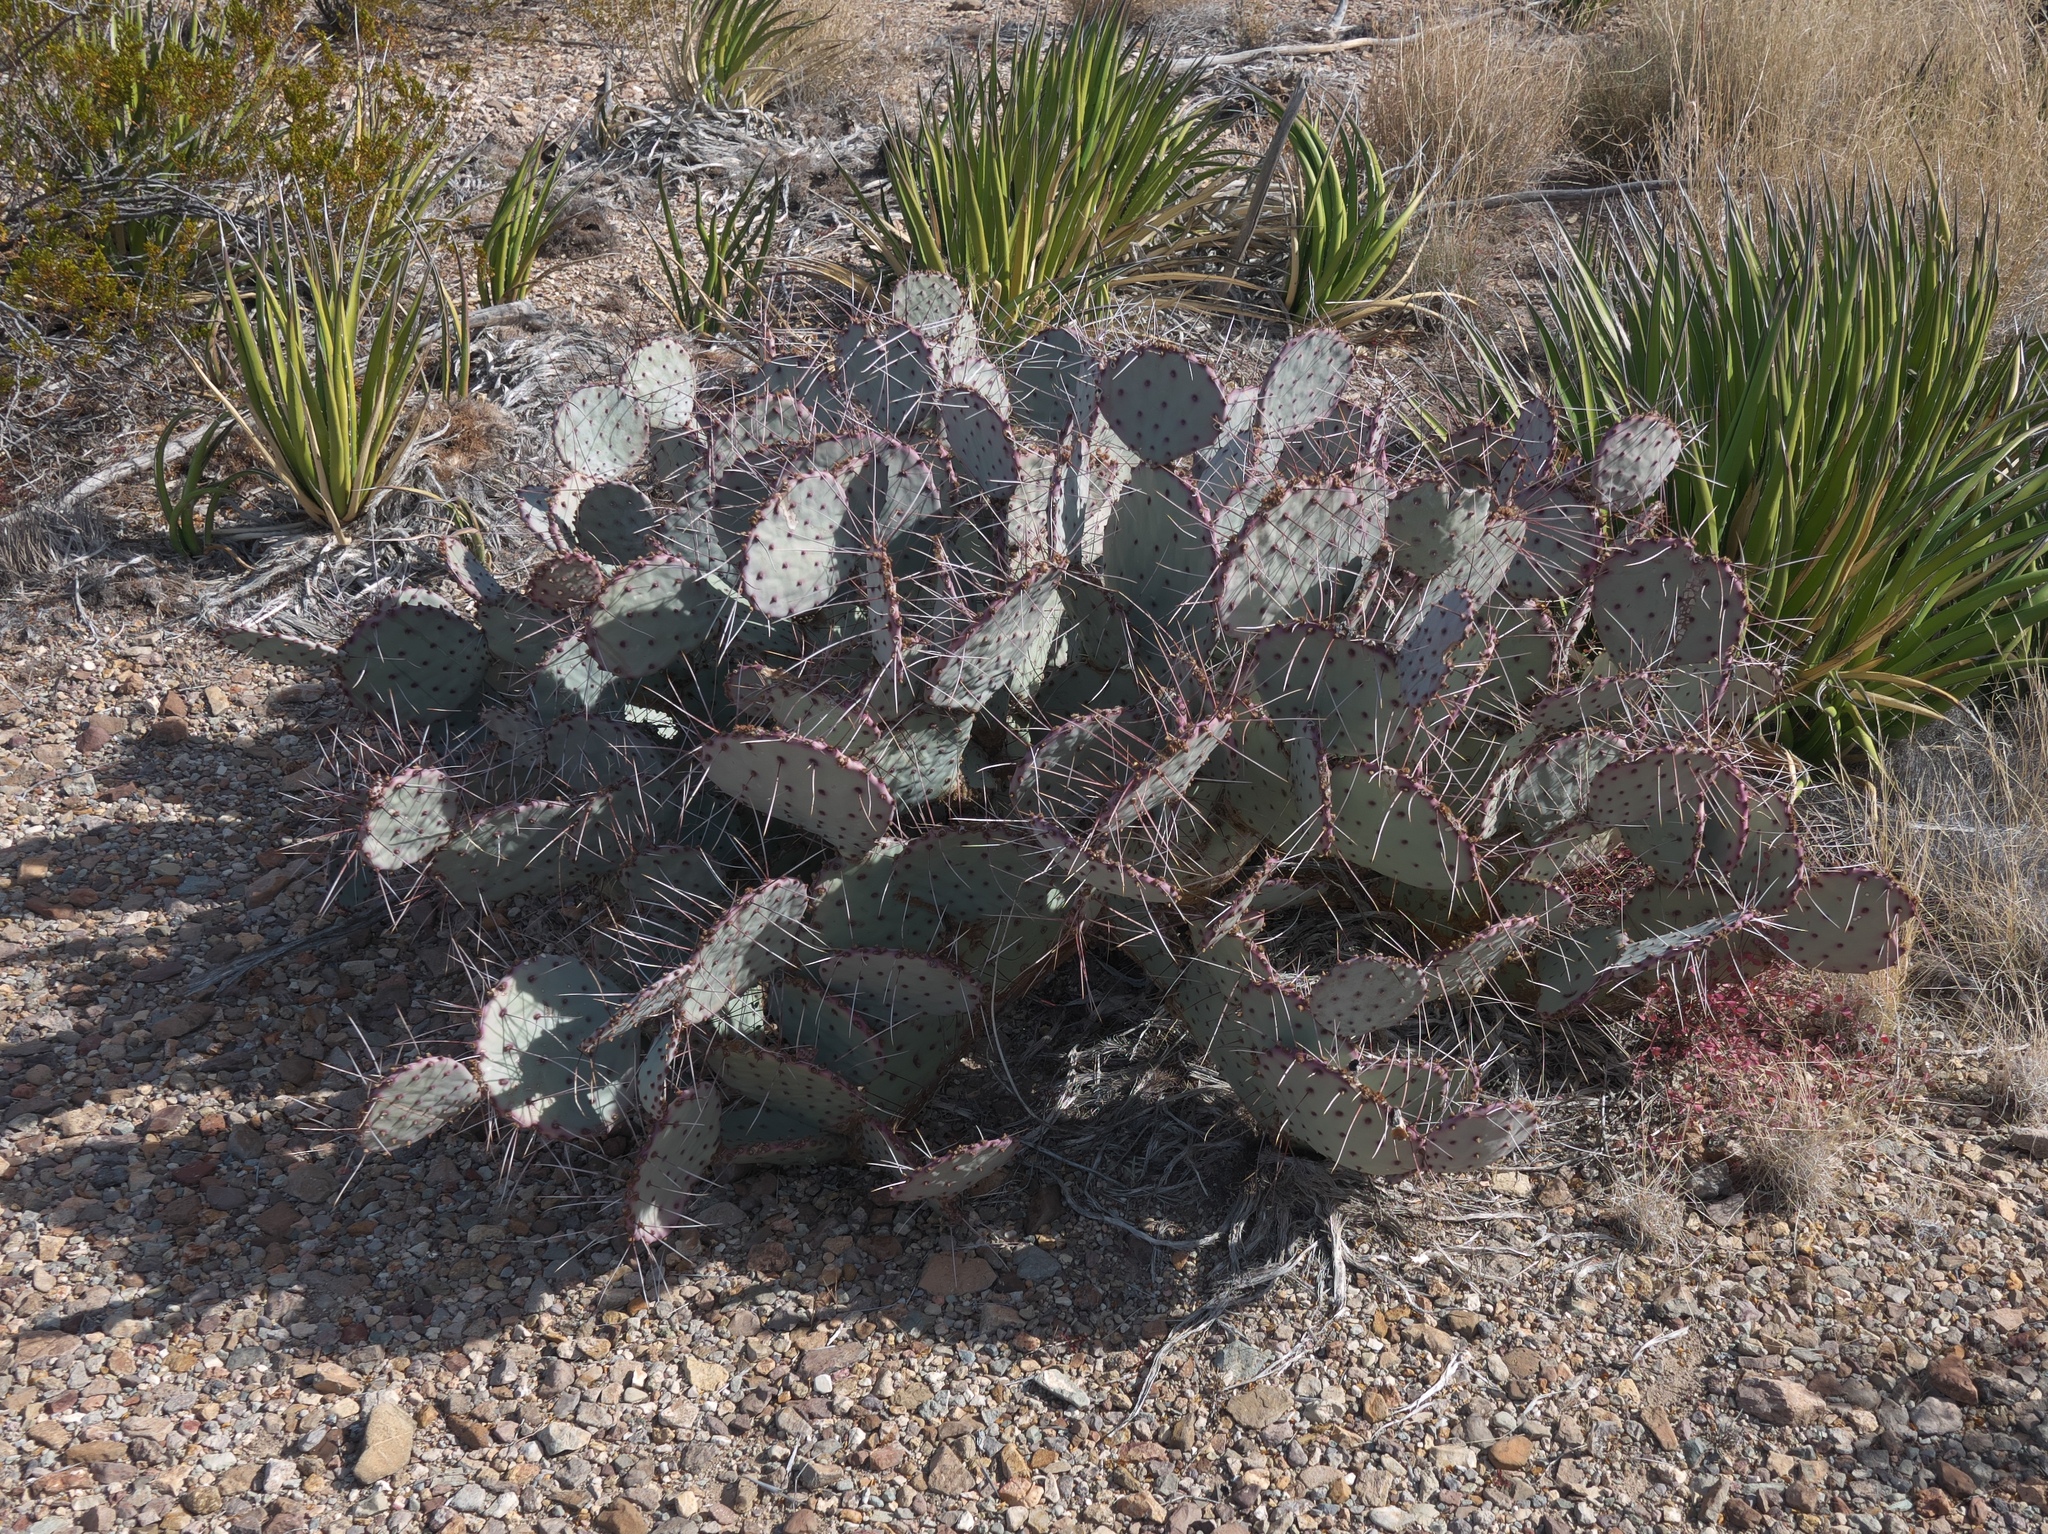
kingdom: Plantae
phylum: Tracheophyta
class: Magnoliopsida
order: Caryophyllales
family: Cactaceae
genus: Opuntia
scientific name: Opuntia phaeacantha
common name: New mexico prickly-pear
